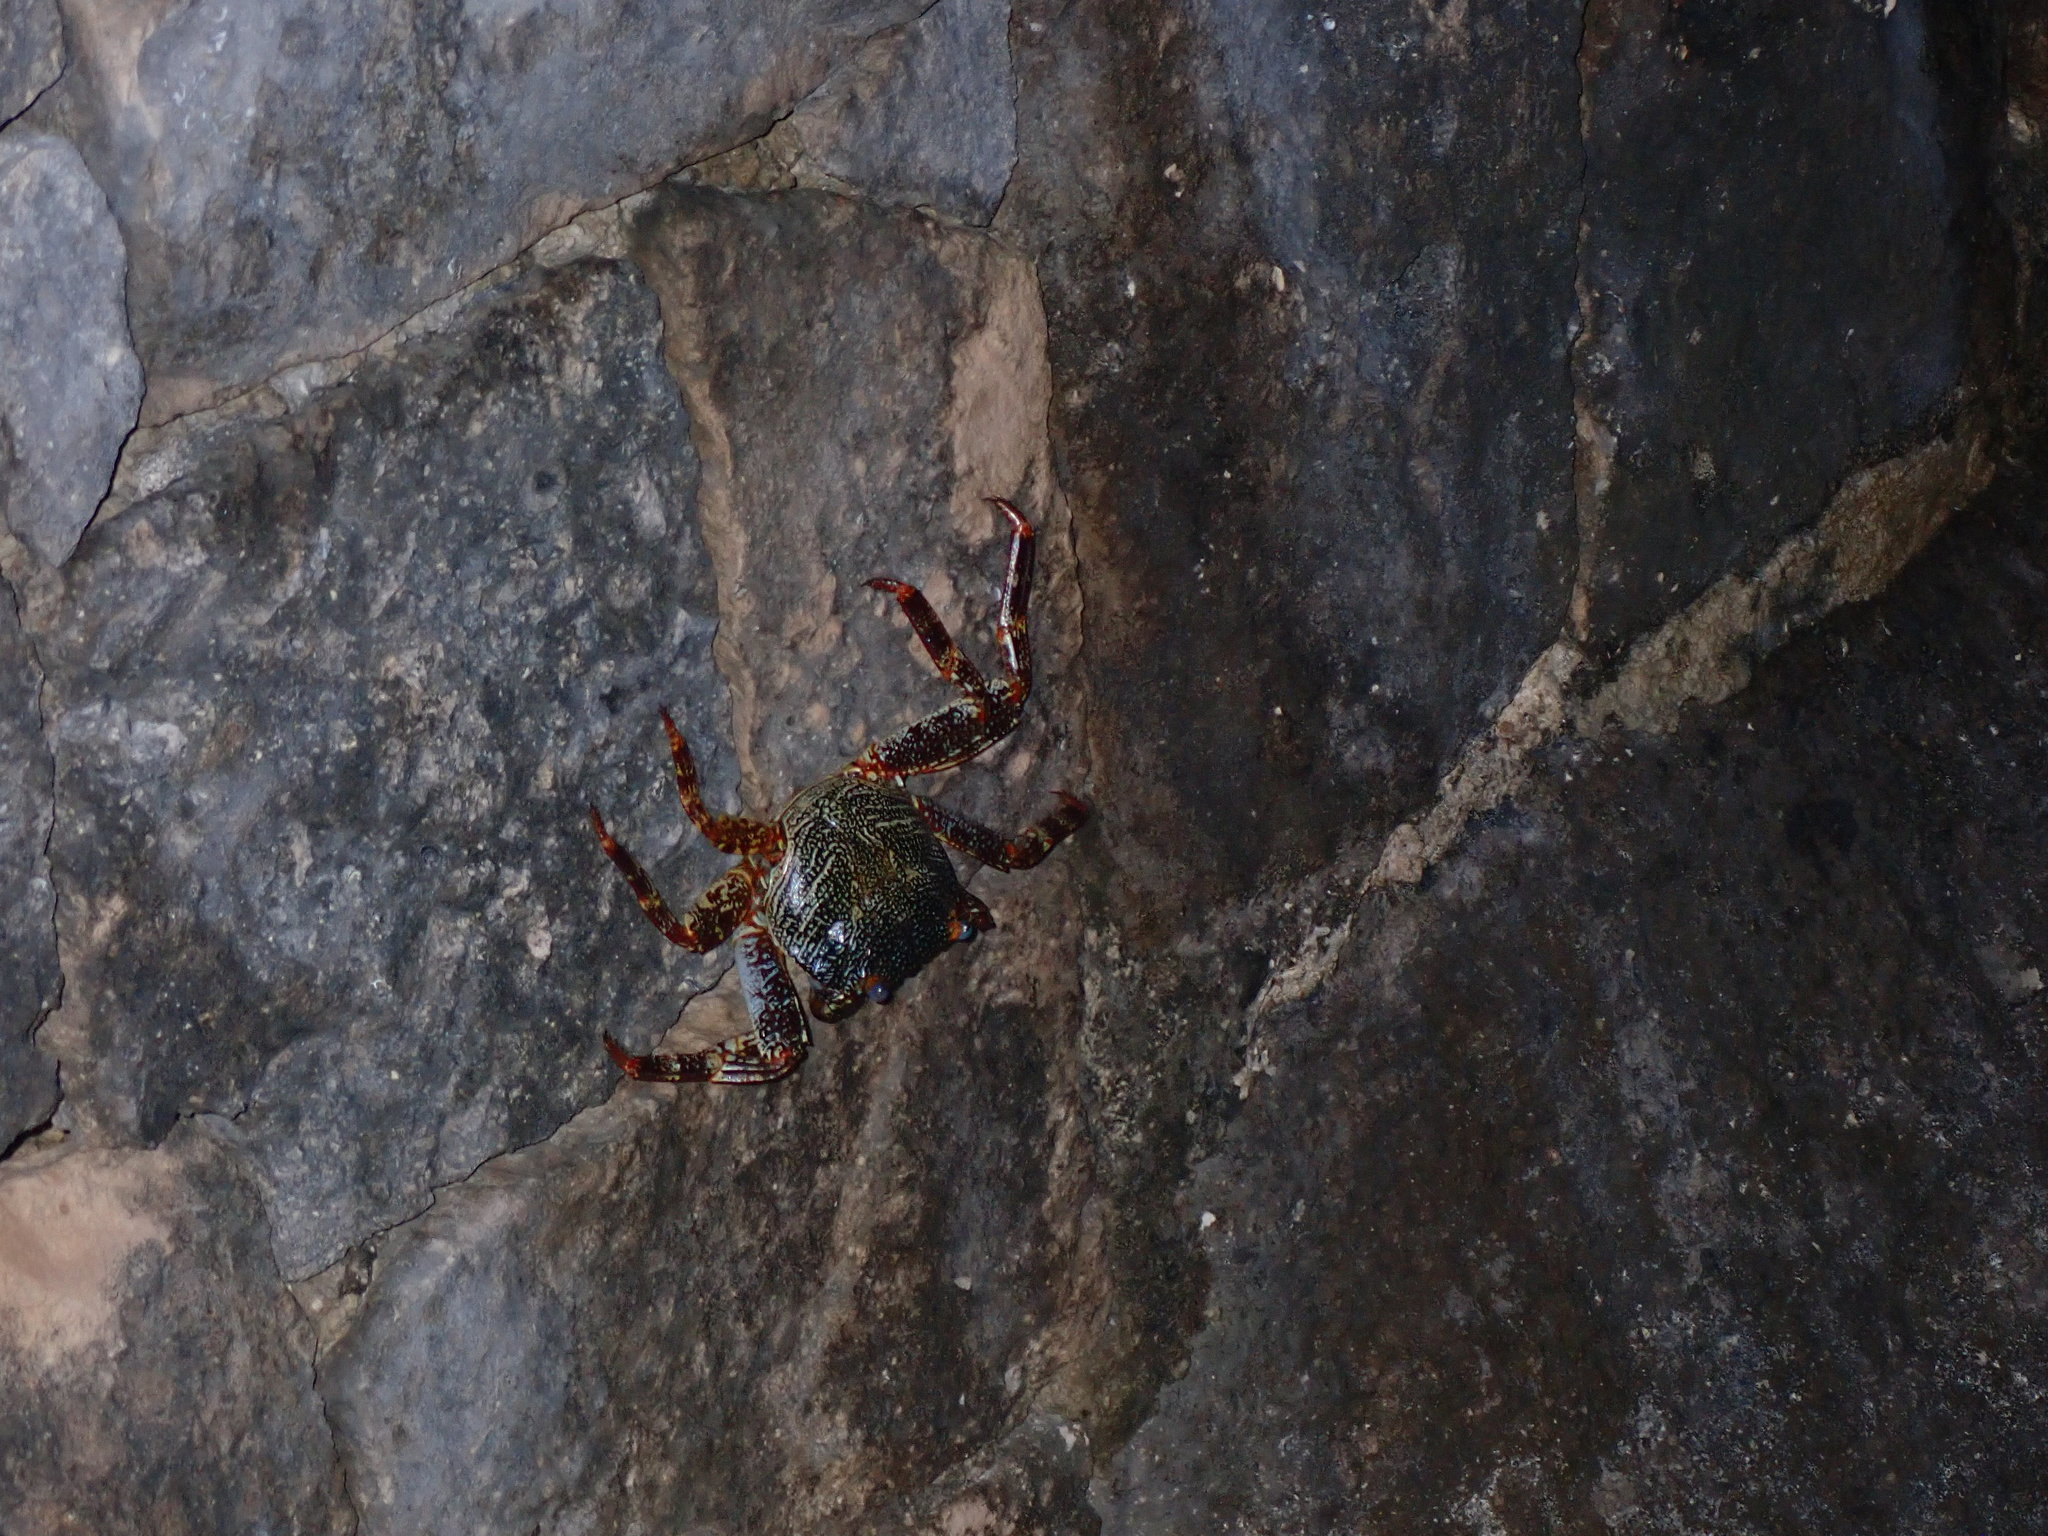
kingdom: Animalia
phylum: Arthropoda
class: Malacostraca
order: Decapoda
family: Grapsidae
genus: Grapsus
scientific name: Grapsus grapsus
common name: Sally lightfoot
